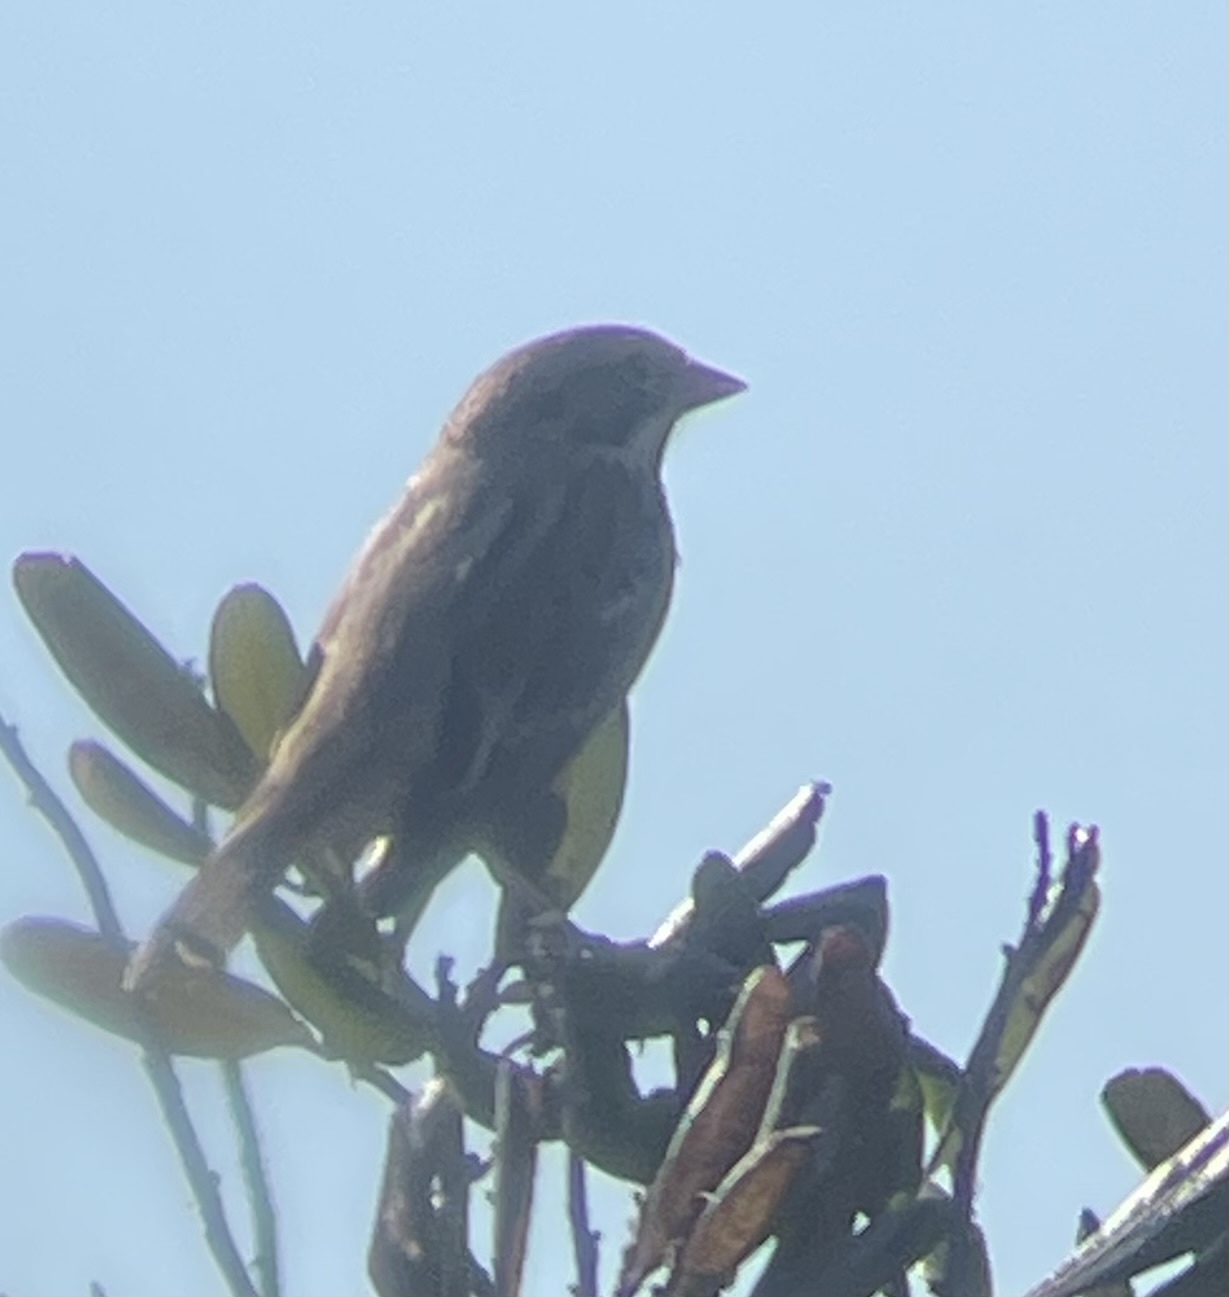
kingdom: Animalia
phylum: Chordata
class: Aves
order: Passeriformes
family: Passerellidae
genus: Melospiza
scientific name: Melospiza melodia
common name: Song sparrow
